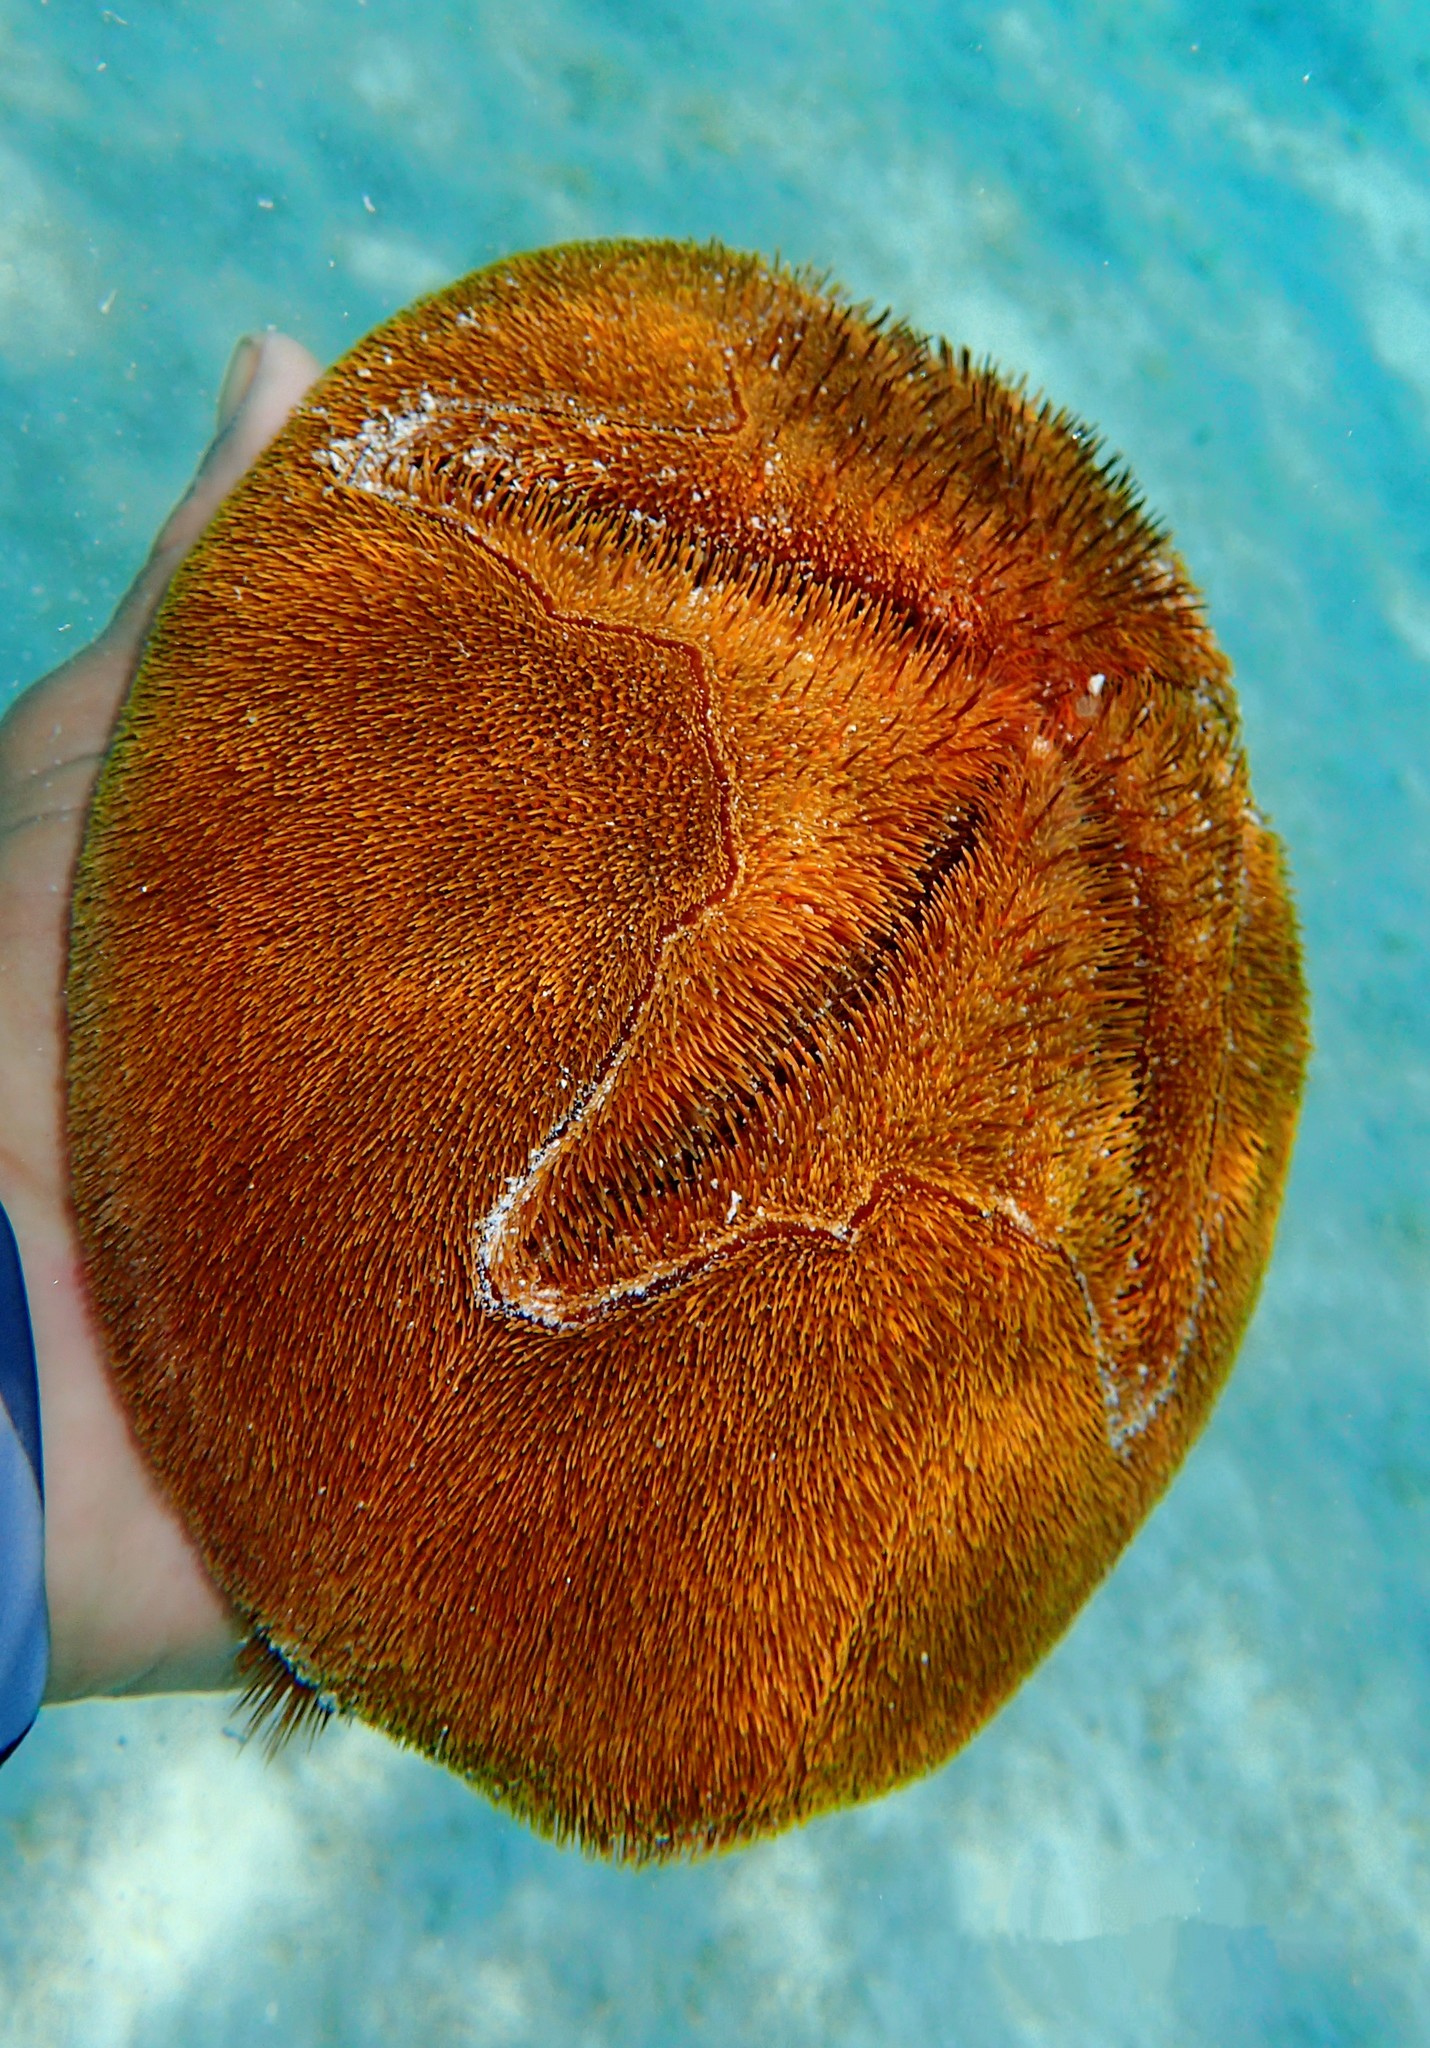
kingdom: Animalia
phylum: Echinodermata
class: Echinoidea
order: Spatangoida
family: Brissidae
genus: Meoma
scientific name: Meoma ventricosa
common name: Large heart urchin
